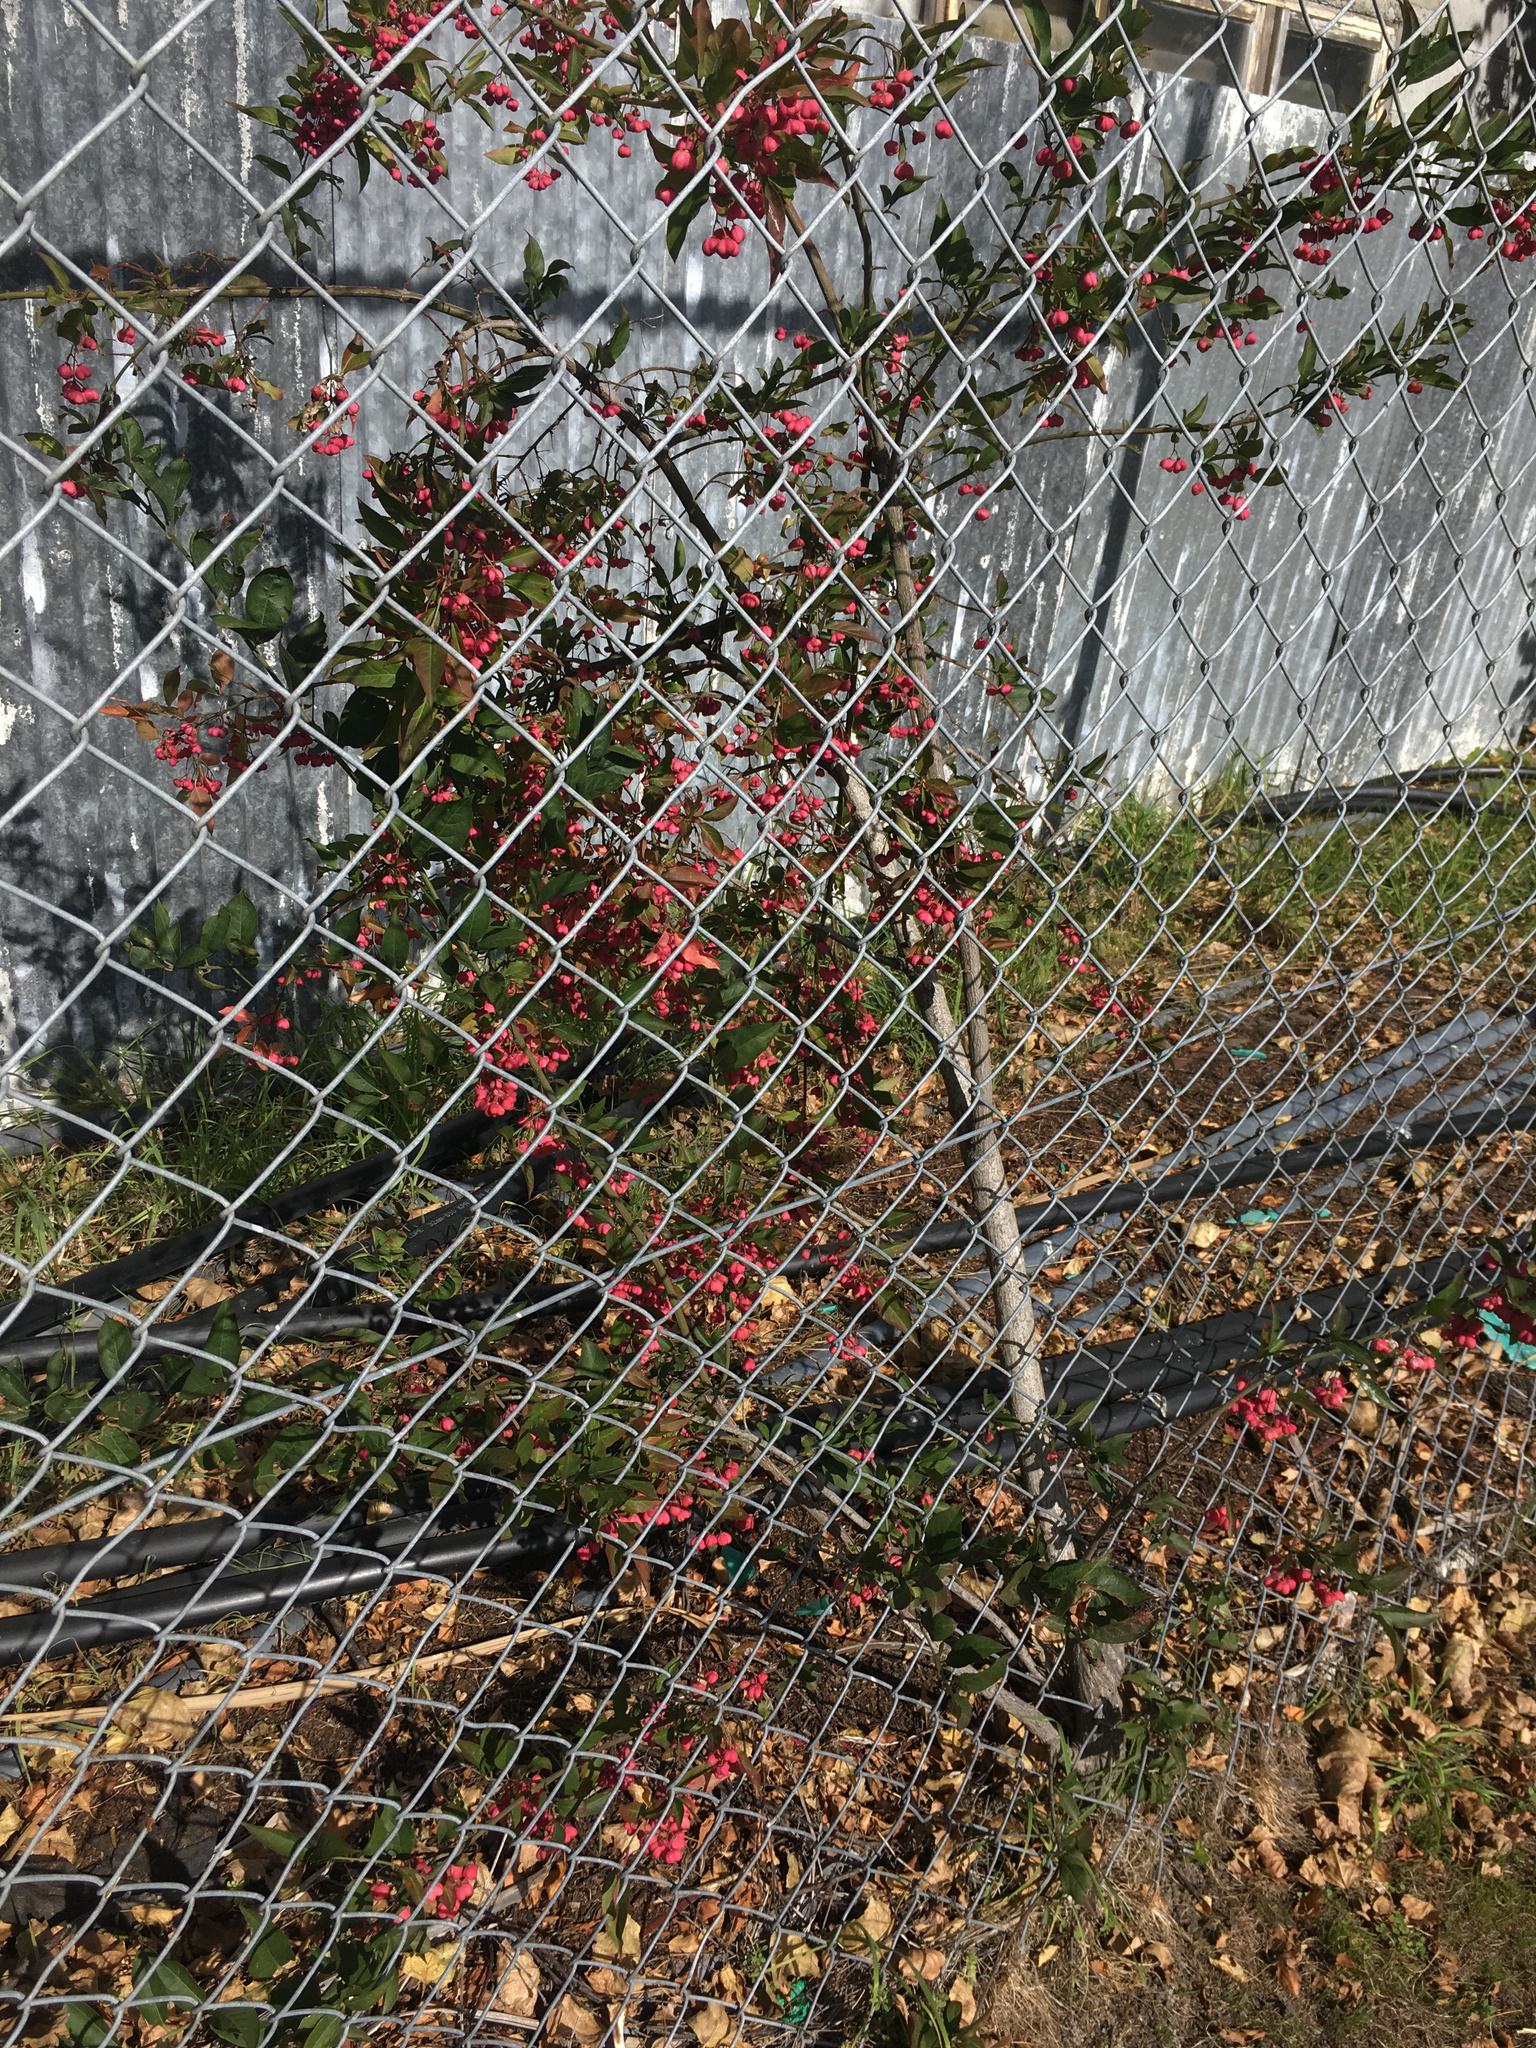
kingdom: Plantae
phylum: Tracheophyta
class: Magnoliopsida
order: Celastrales
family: Celastraceae
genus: Euonymus
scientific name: Euonymus europaeus
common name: Spindle
